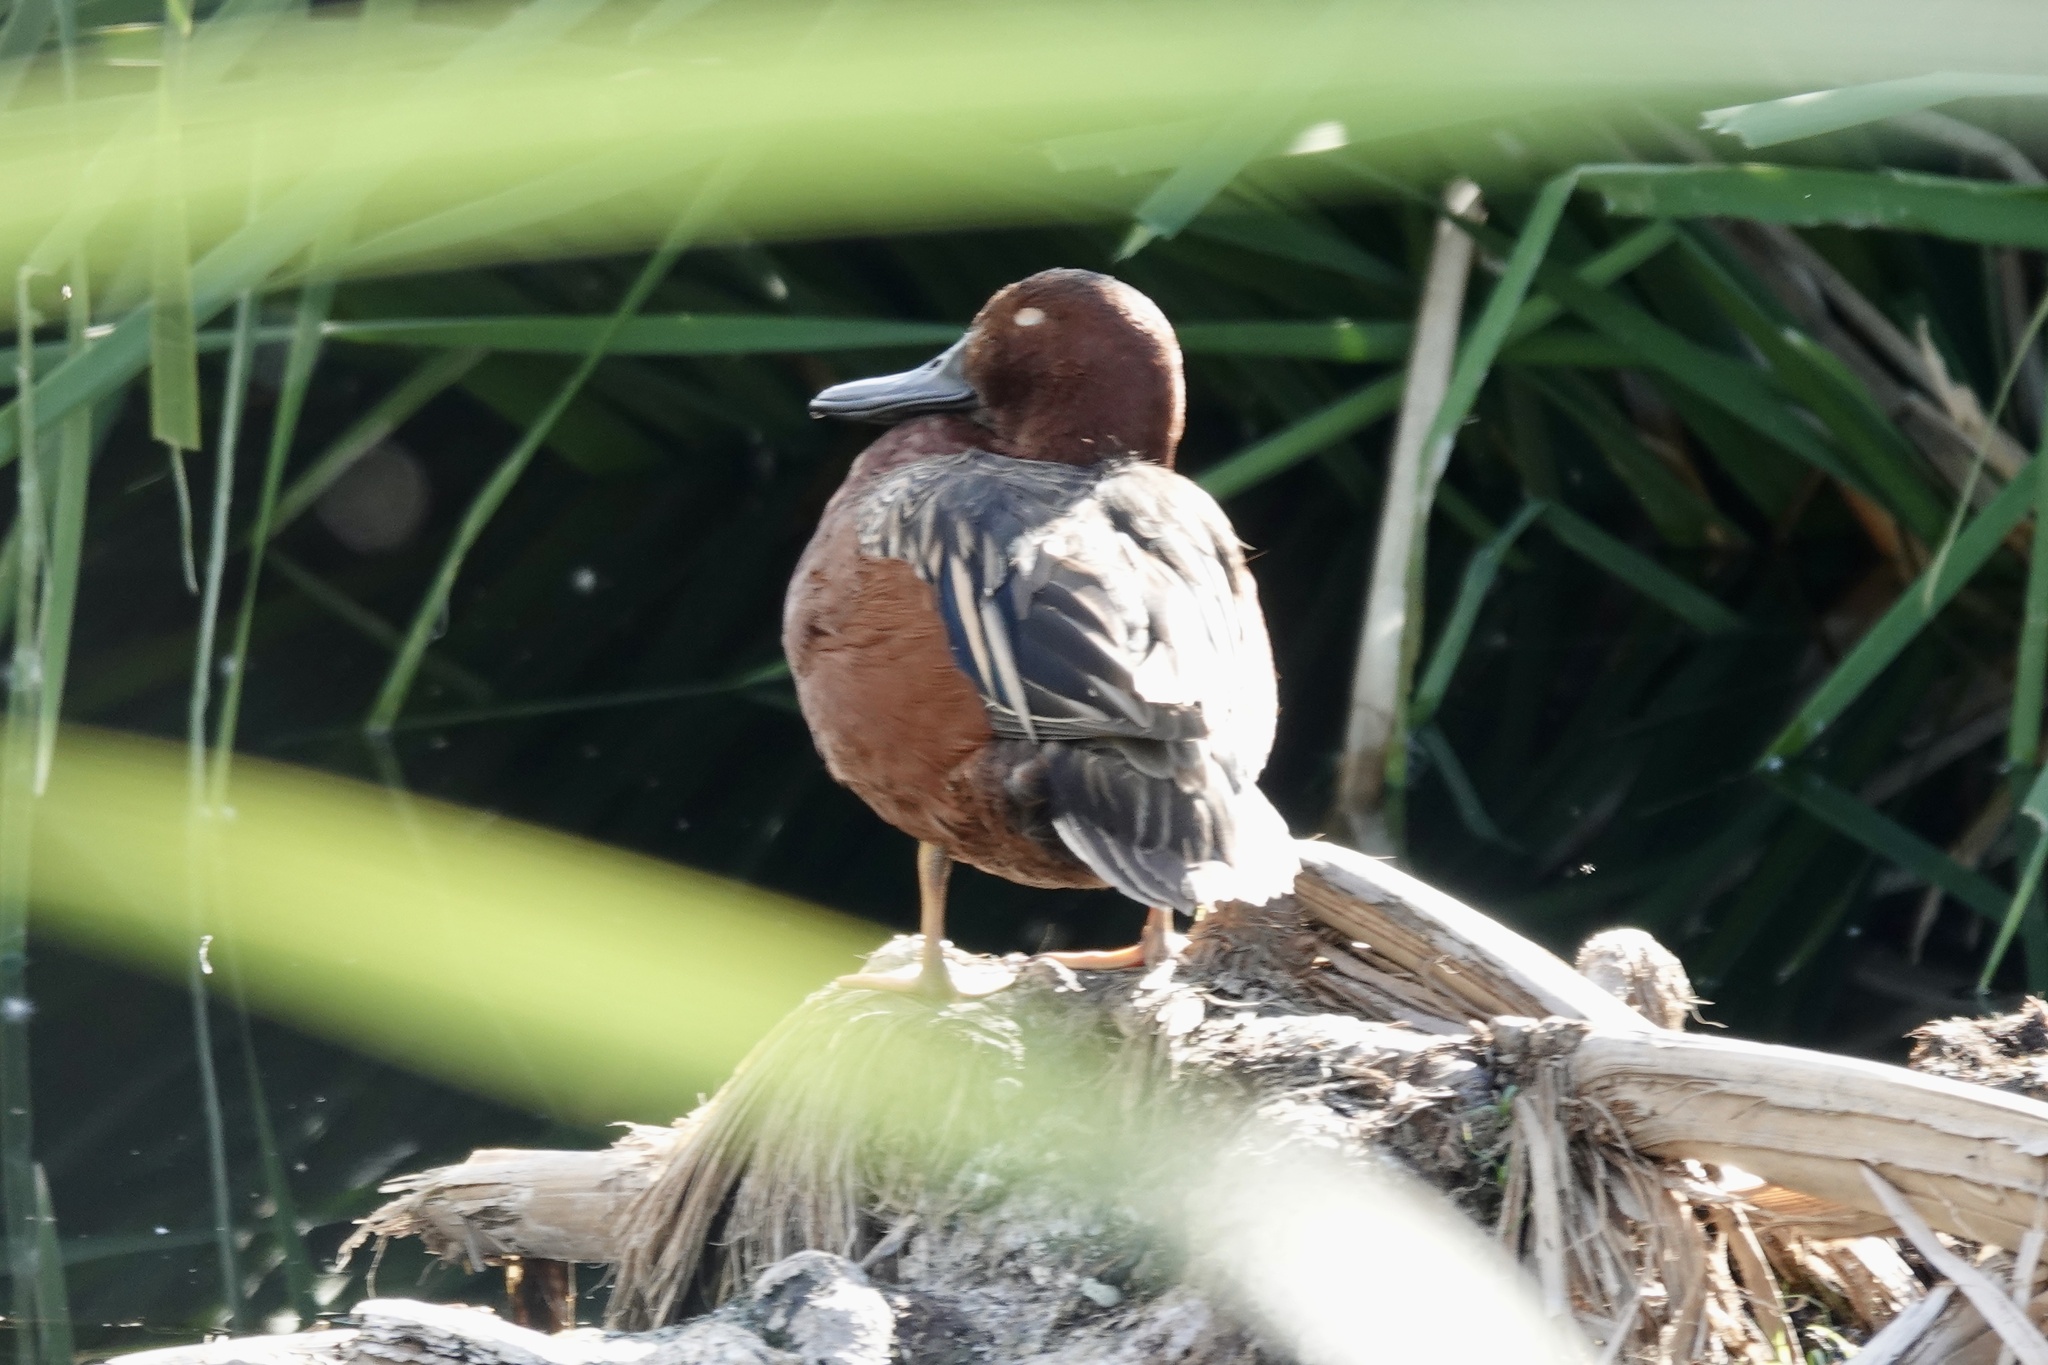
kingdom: Animalia
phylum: Chordata
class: Aves
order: Anseriformes
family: Anatidae
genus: Spatula
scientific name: Spatula cyanoptera
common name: Cinnamon teal
